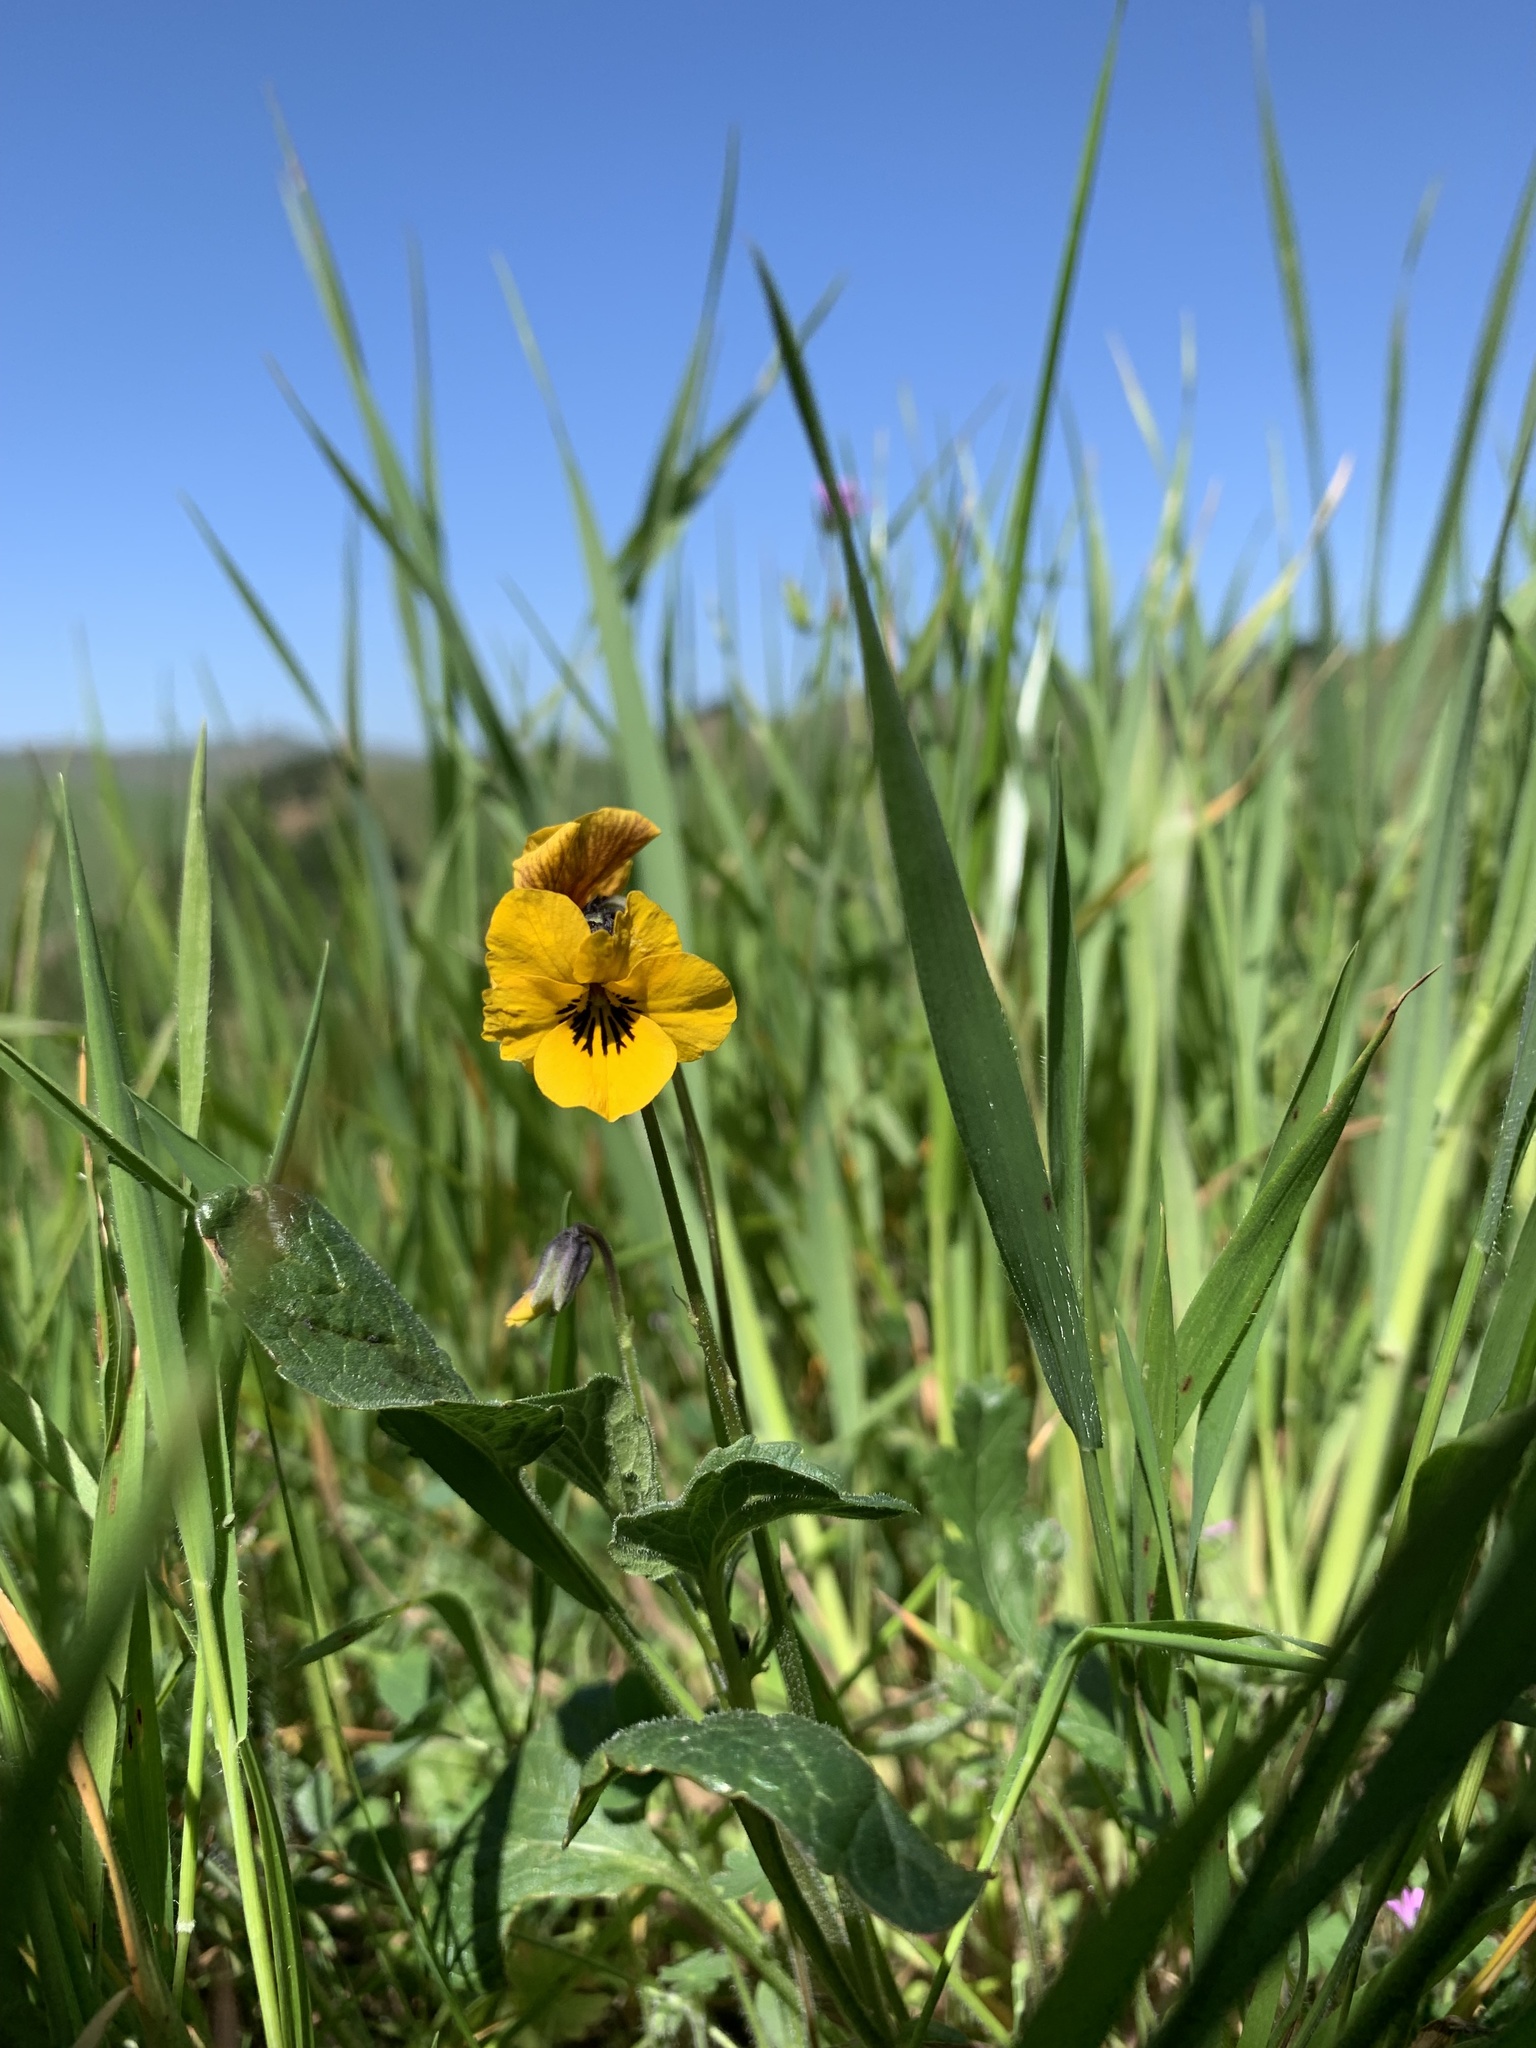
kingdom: Plantae
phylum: Tracheophyta
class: Magnoliopsida
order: Malpighiales
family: Violaceae
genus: Viola
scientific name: Viola pedunculata
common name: California golden violet
